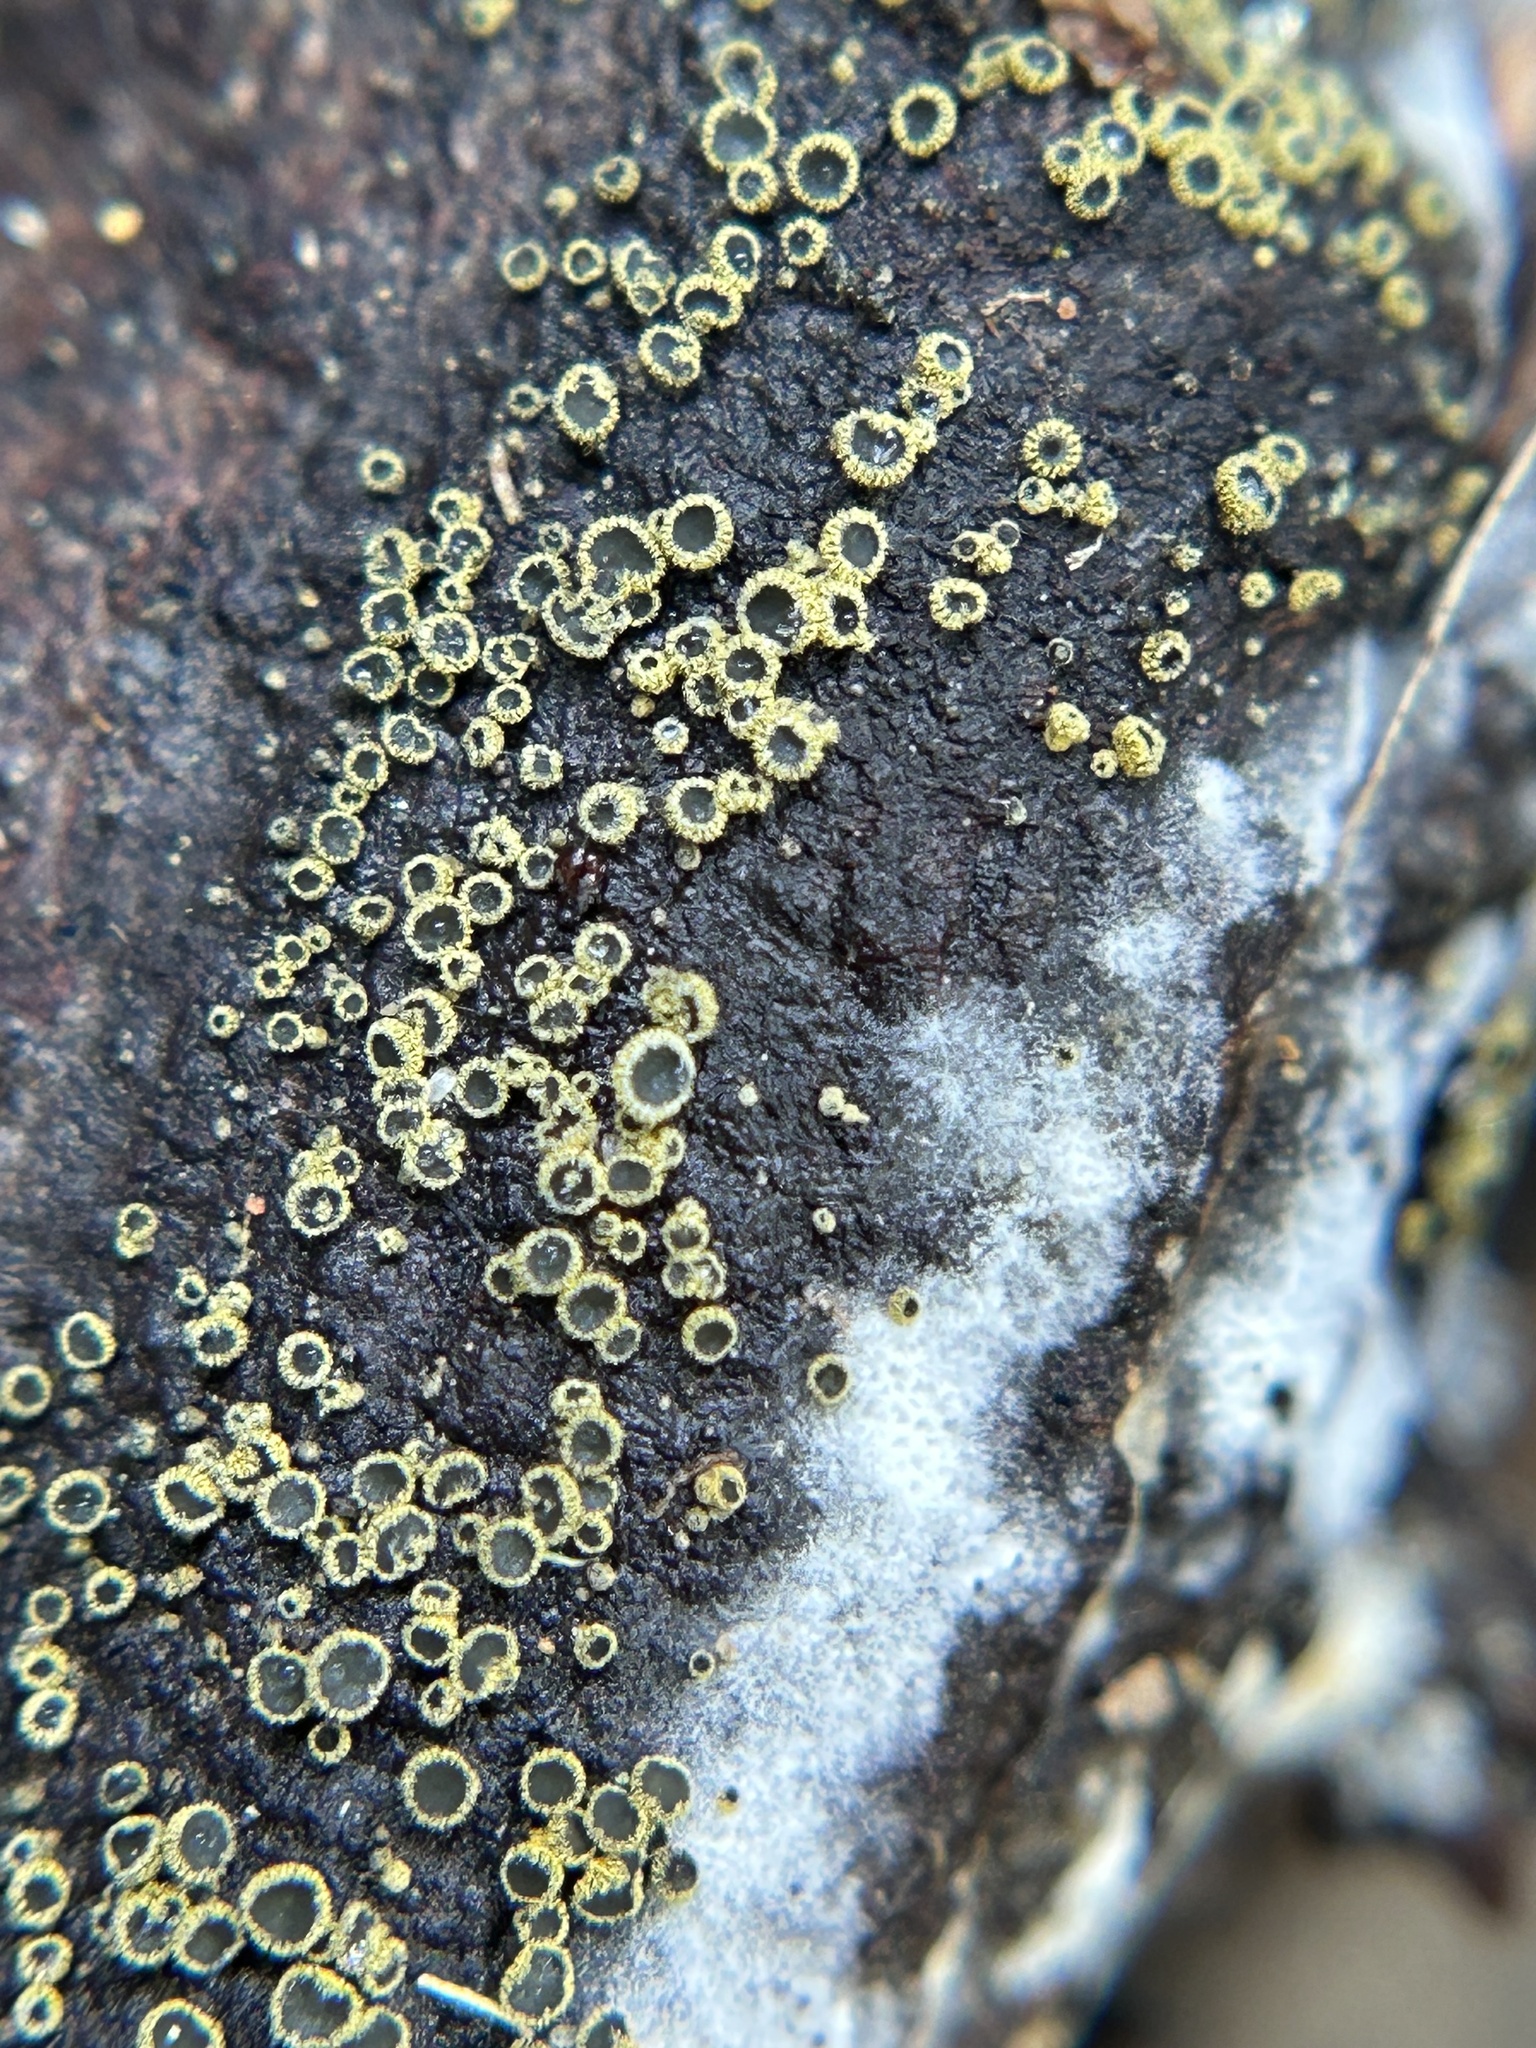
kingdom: Fungi
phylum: Ascomycota
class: Leotiomycetes
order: Helotiales
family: Lachnaceae
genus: Neodasyscypha
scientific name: Neodasyscypha cerina
